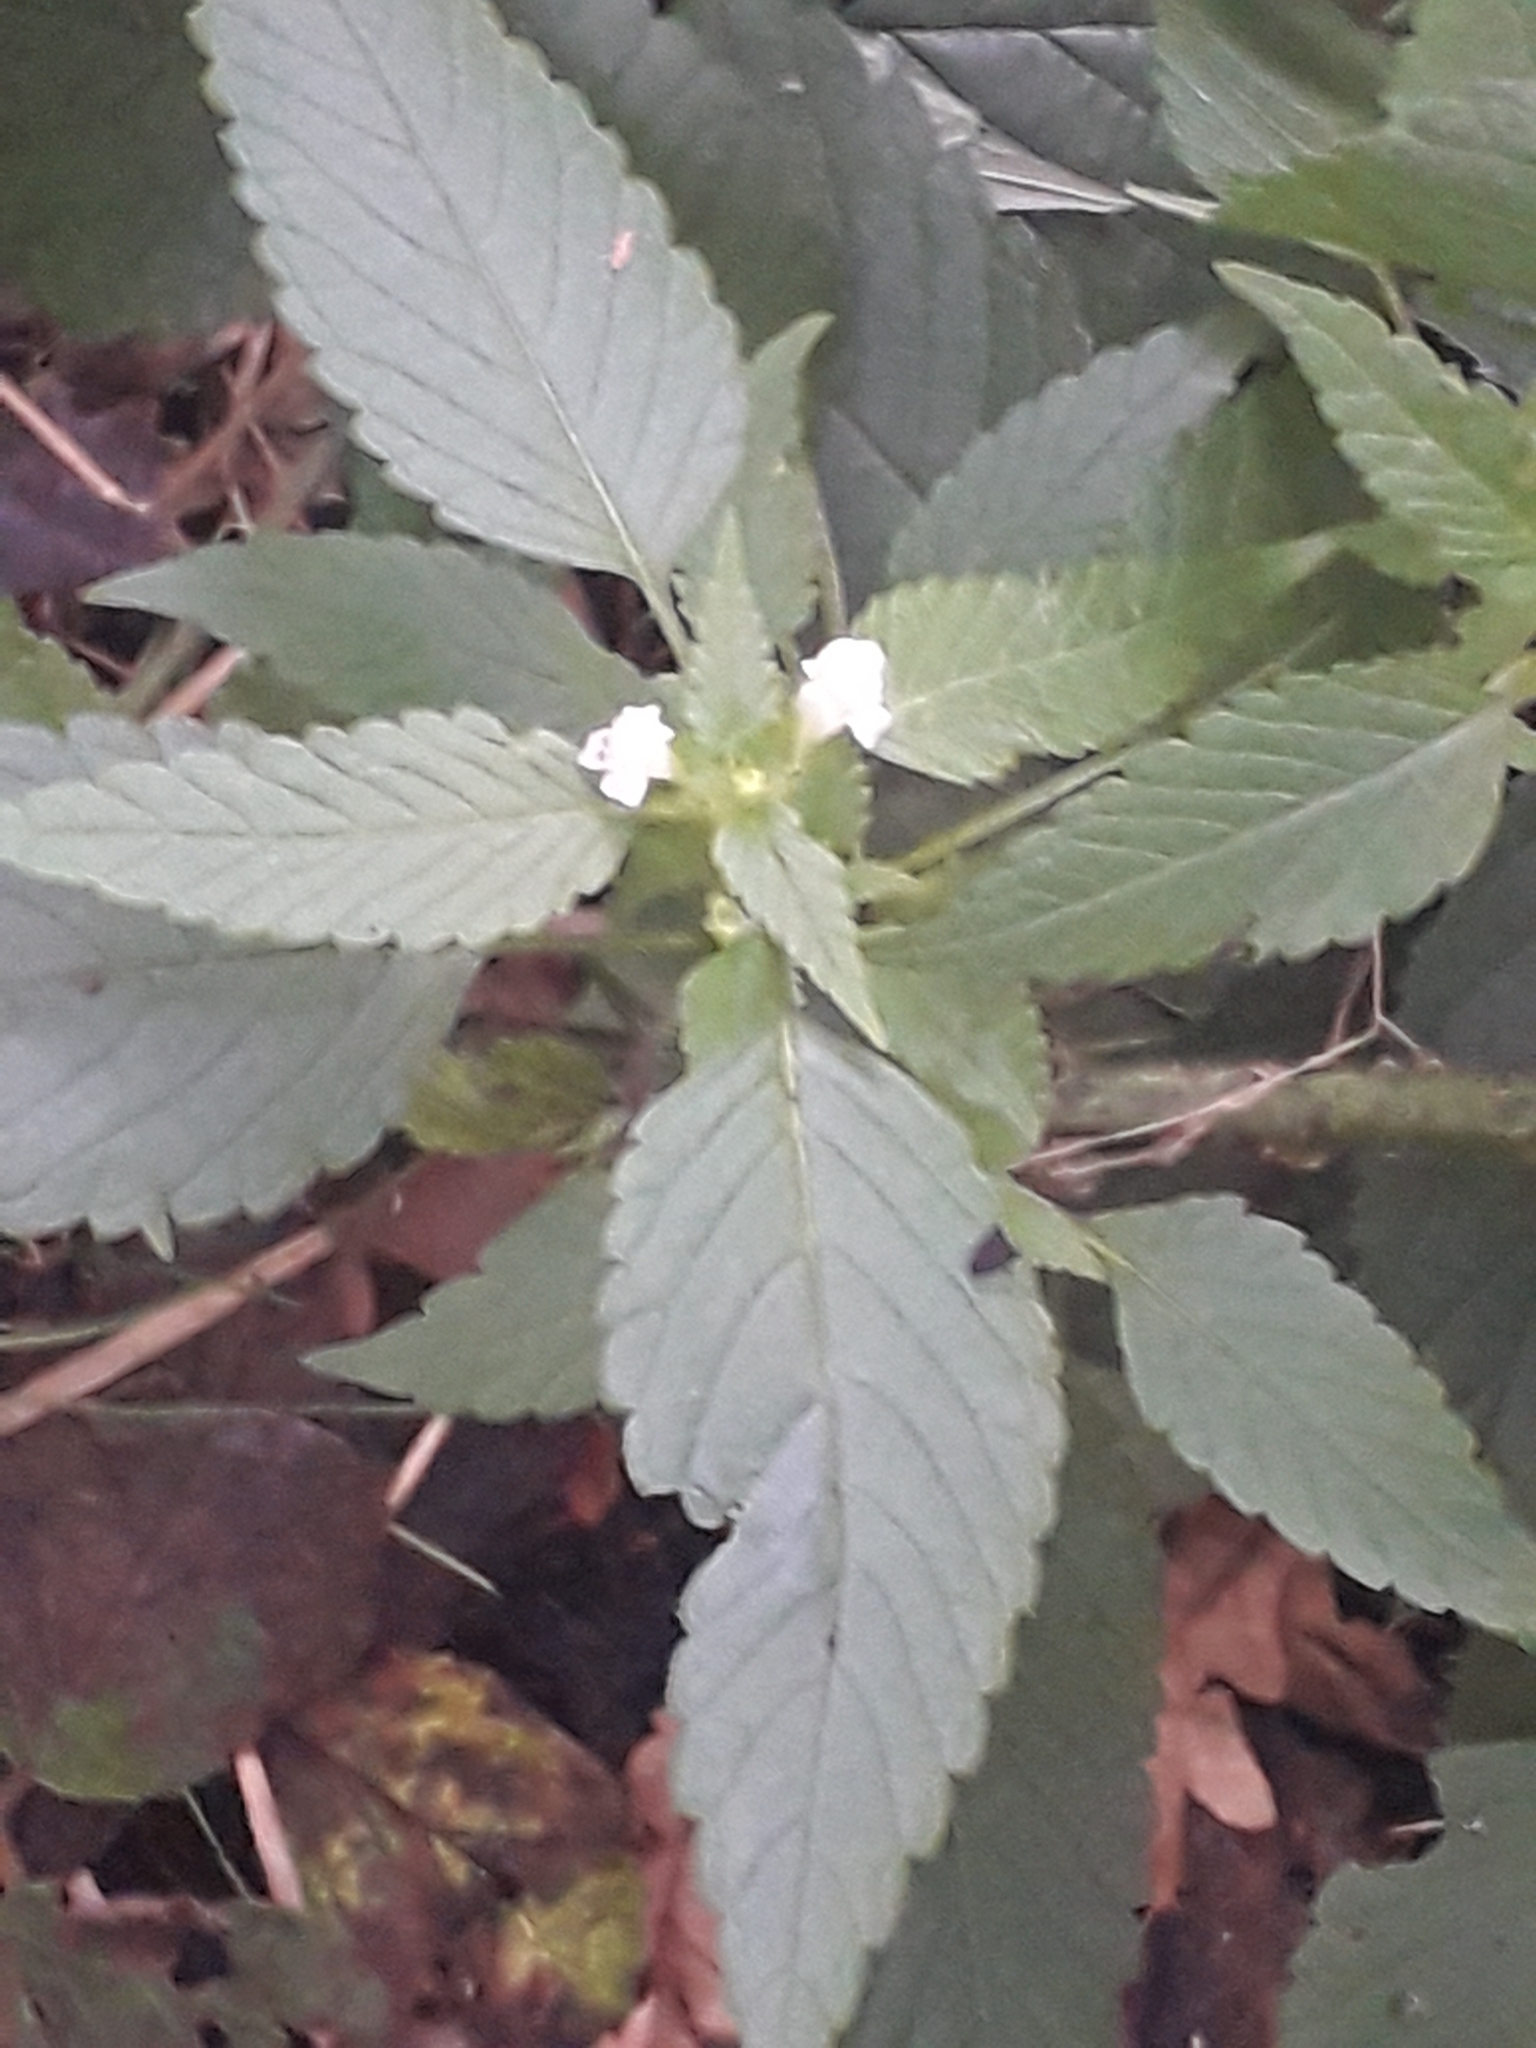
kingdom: Plantae
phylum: Tracheophyta
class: Magnoliopsida
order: Lamiales
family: Lamiaceae
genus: Galeopsis
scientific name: Galeopsis tetrahit
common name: Common hemp-nettle
